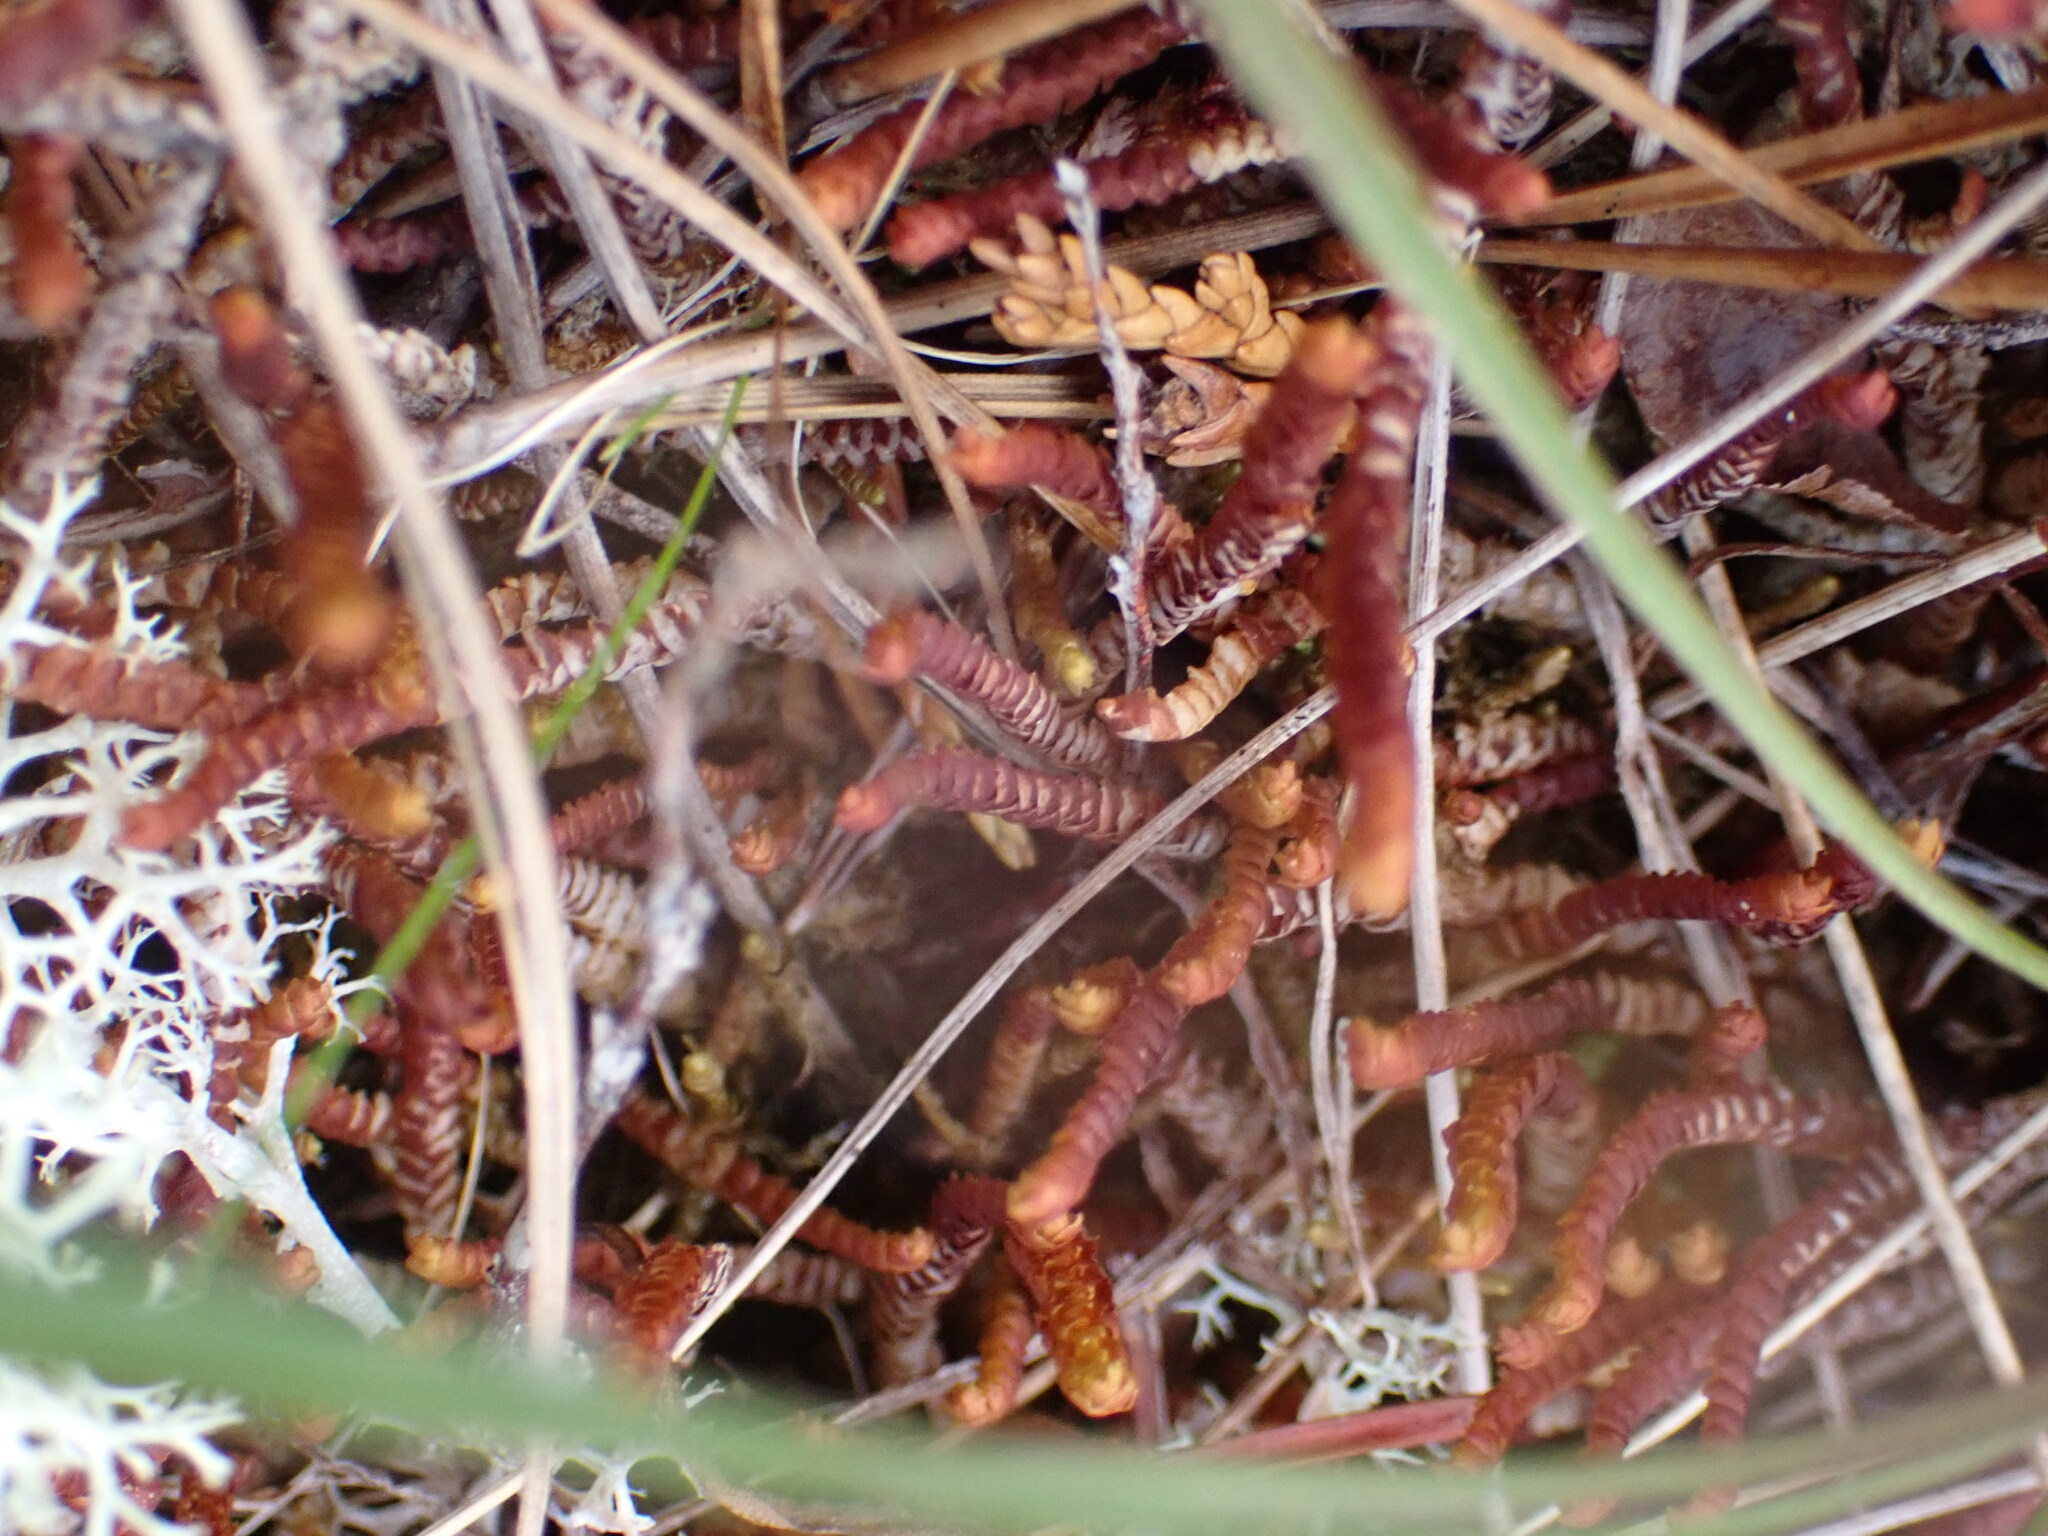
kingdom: Plantae
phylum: Marchantiophyta
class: Jungermanniopsida
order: Pleuroziales
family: Pleuroziaceae
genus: Pleurozia
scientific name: Pleurozia purpurea
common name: Purple spoonwort
